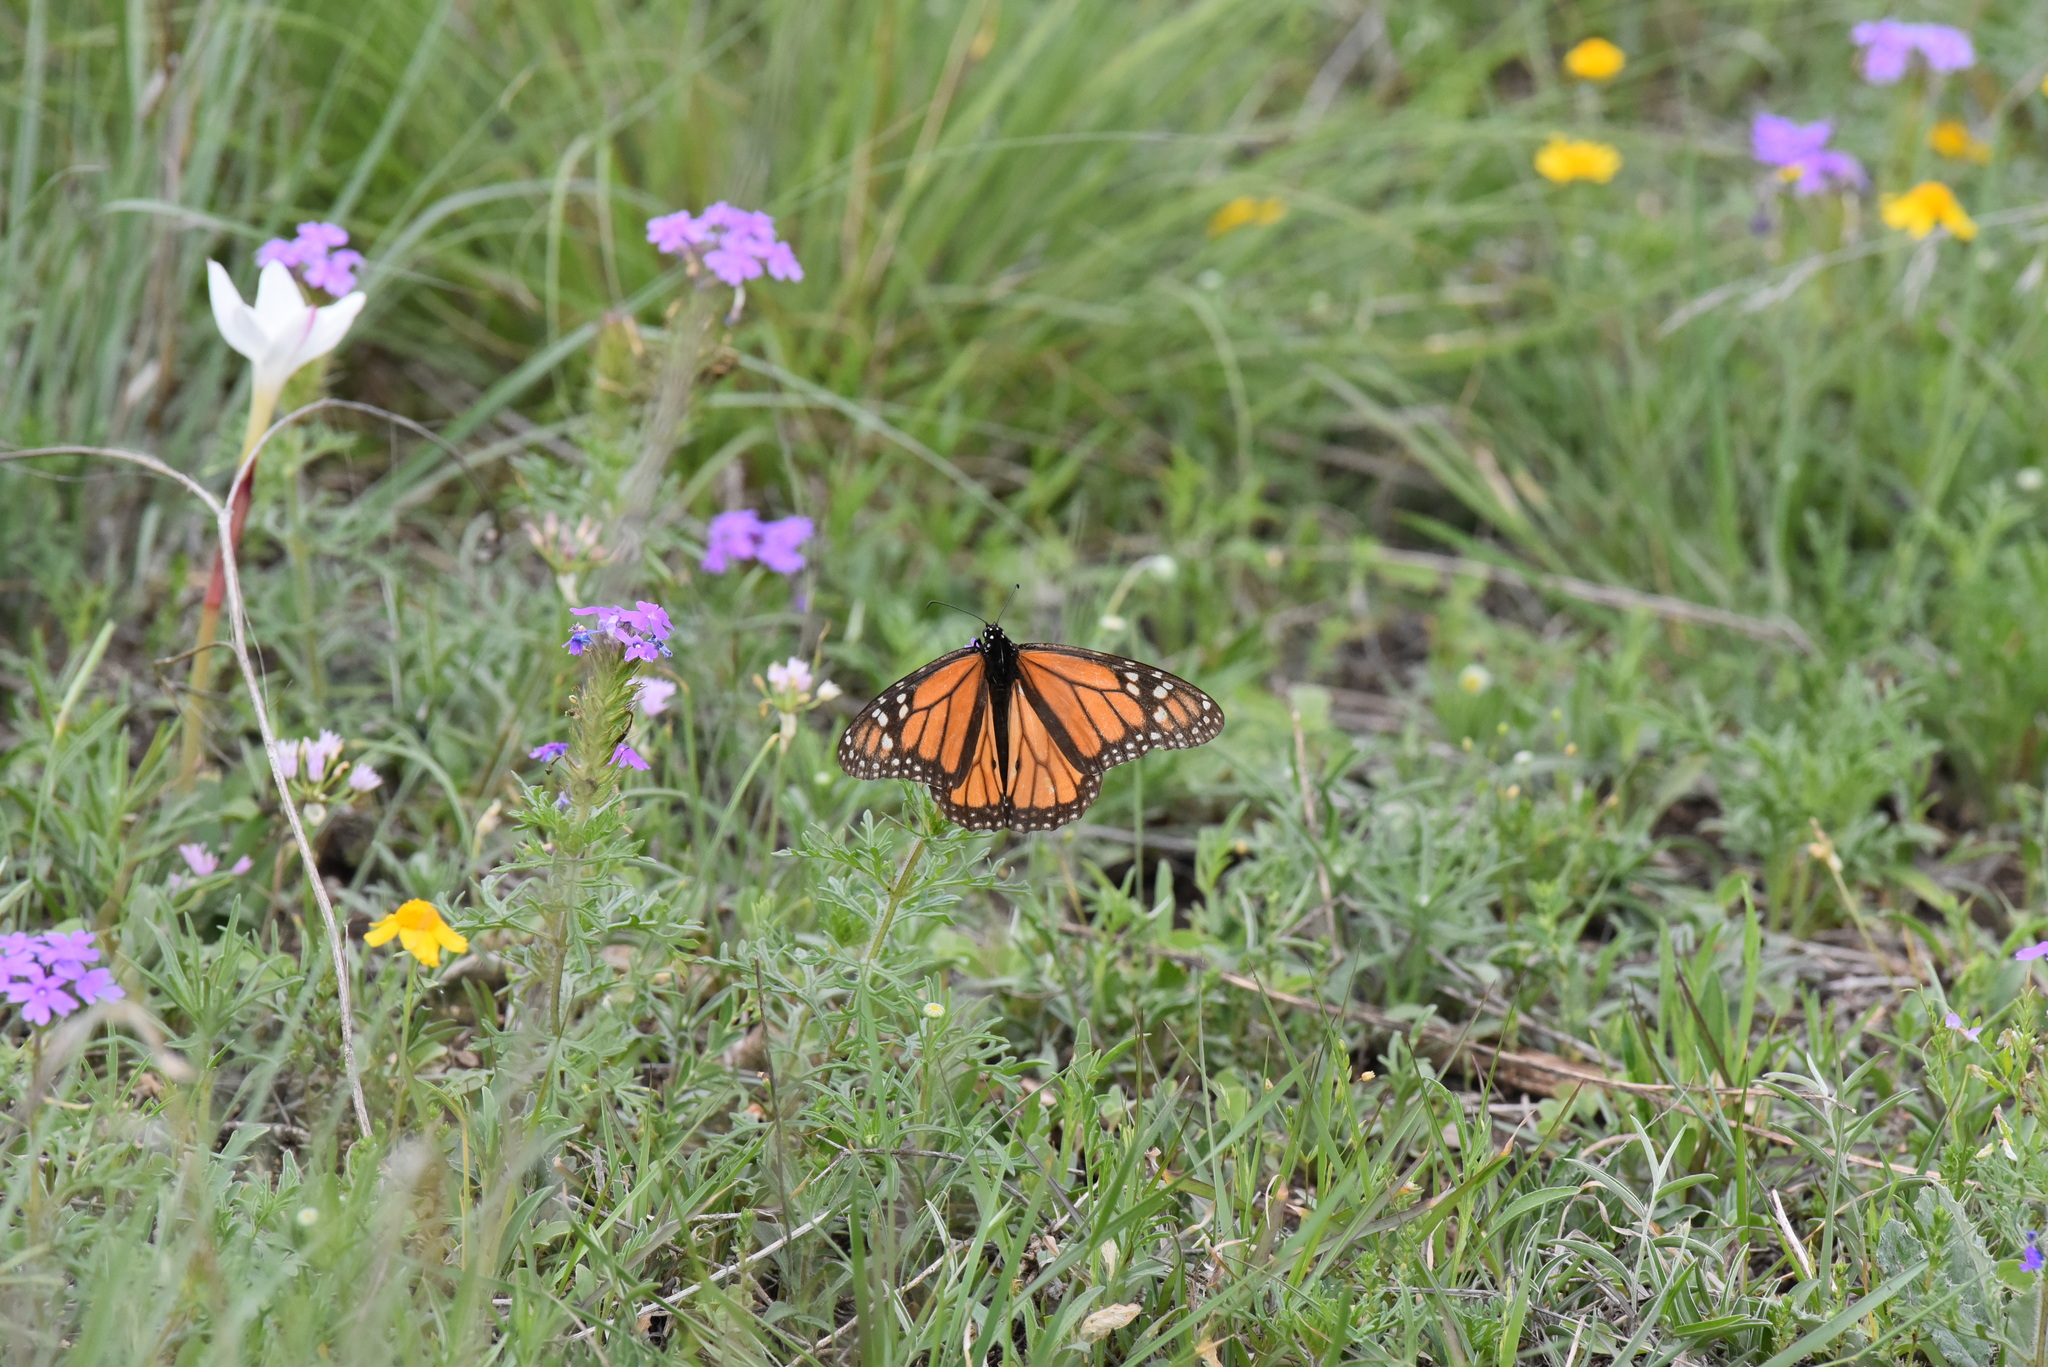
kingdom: Animalia
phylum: Arthropoda
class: Insecta
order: Lepidoptera
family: Nymphalidae
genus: Danaus
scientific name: Danaus plexippus
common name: Monarch
